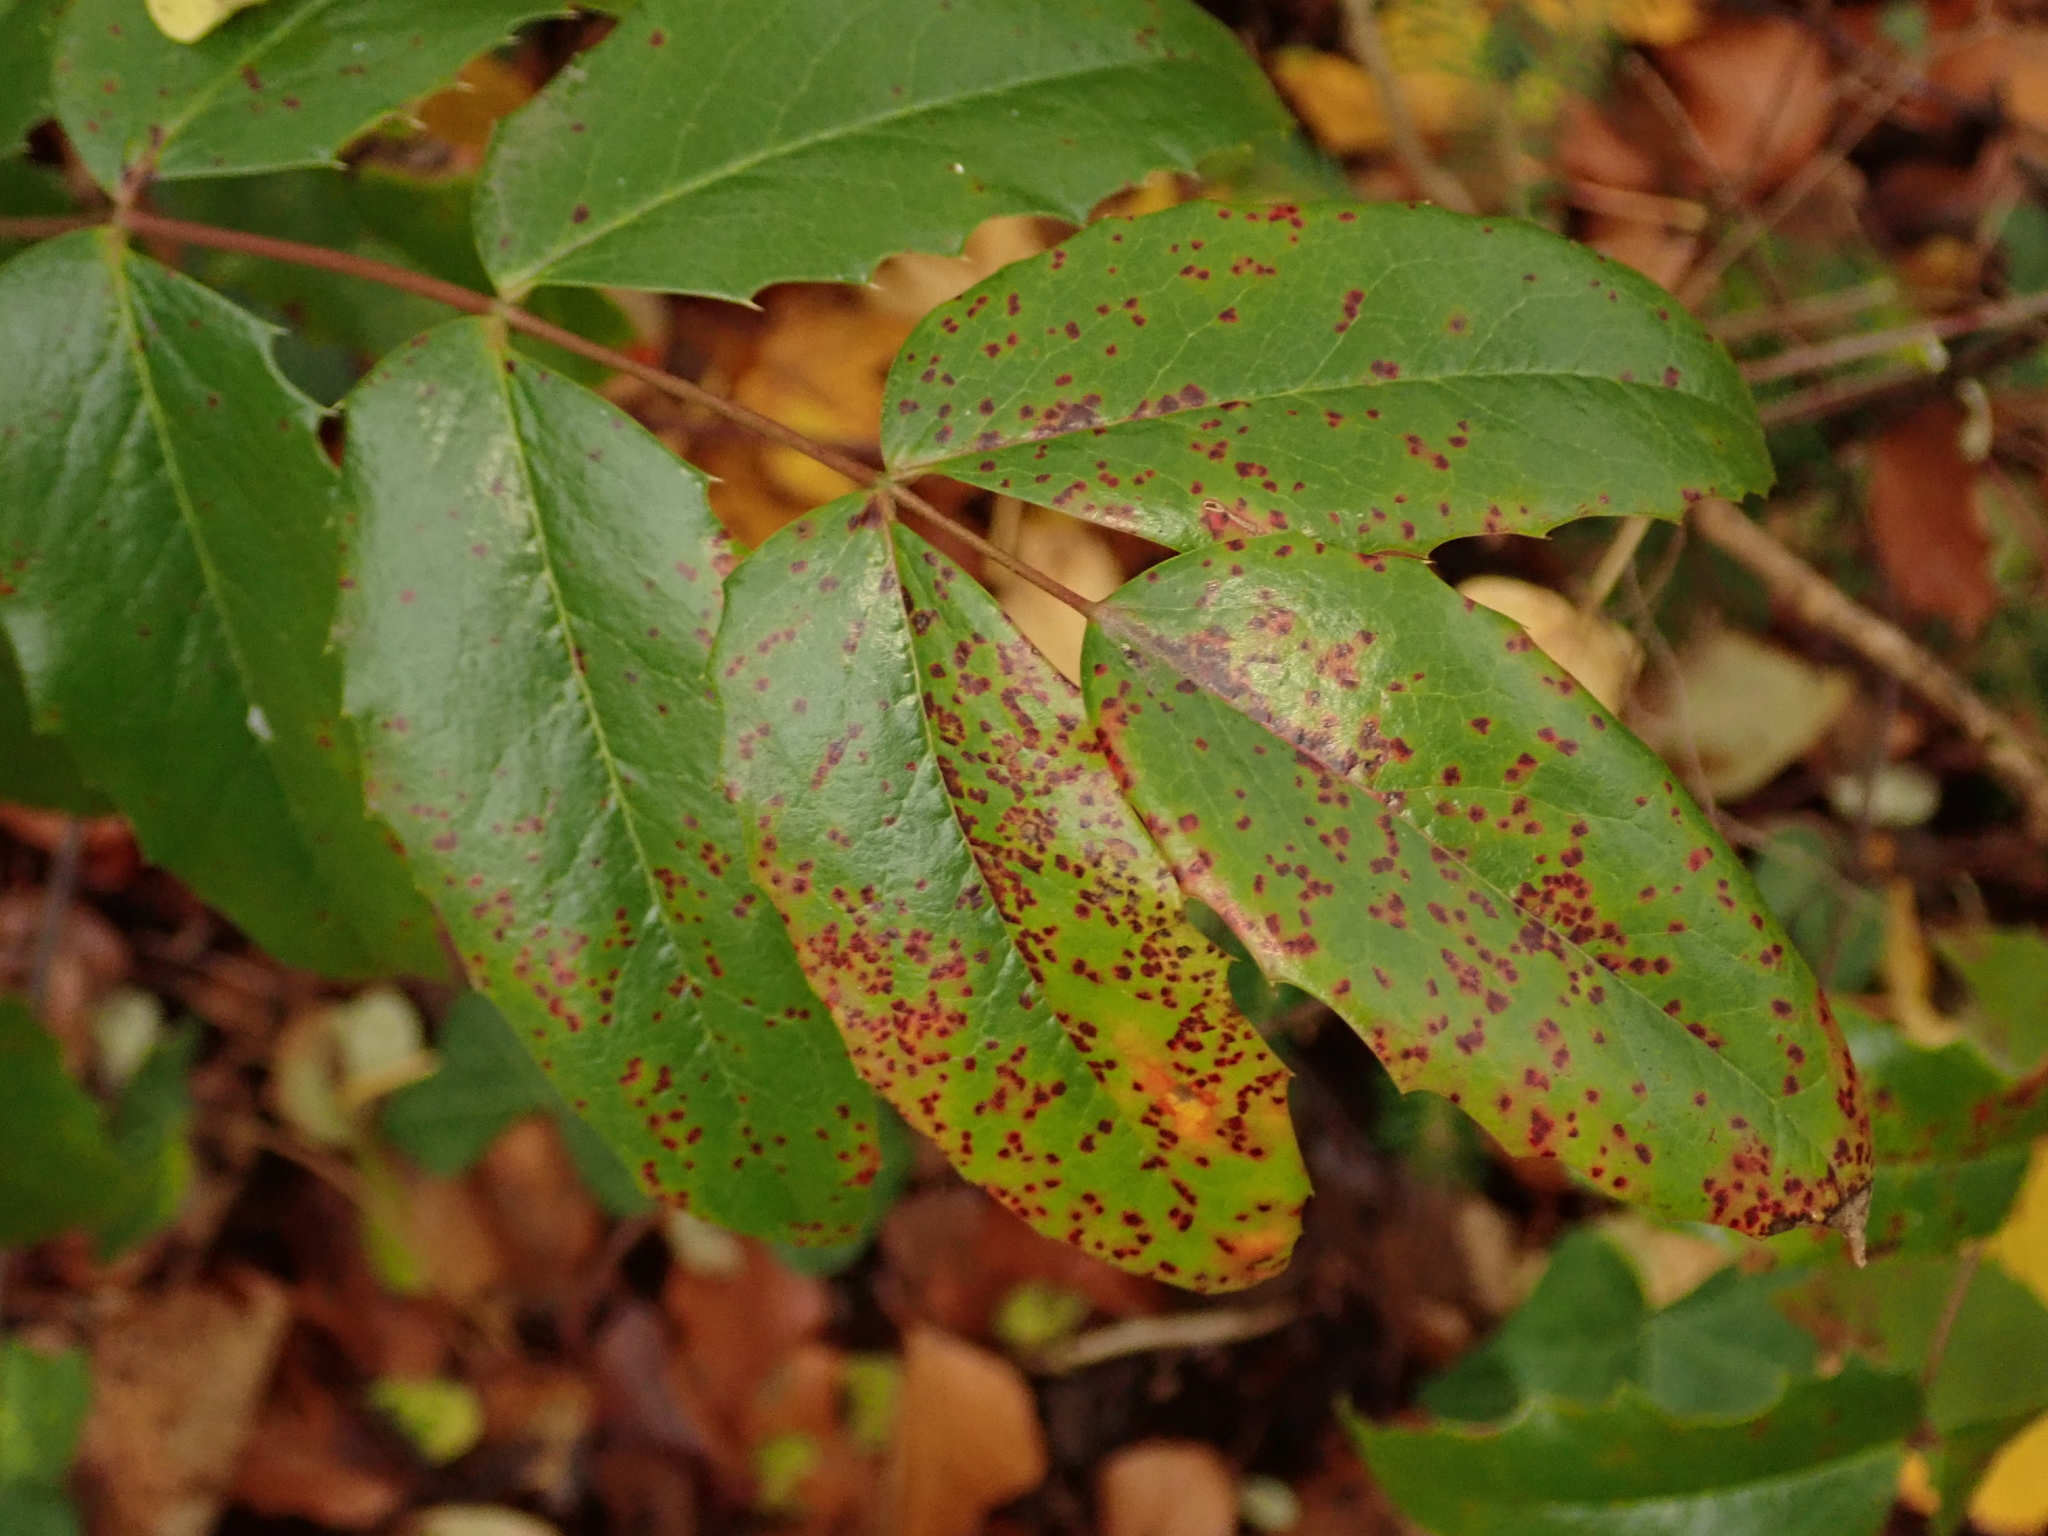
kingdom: Plantae
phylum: Tracheophyta
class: Magnoliopsida
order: Ranunculales
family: Berberidaceae
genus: Mahonia
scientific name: Mahonia aquifolium
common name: Oregon-grape
